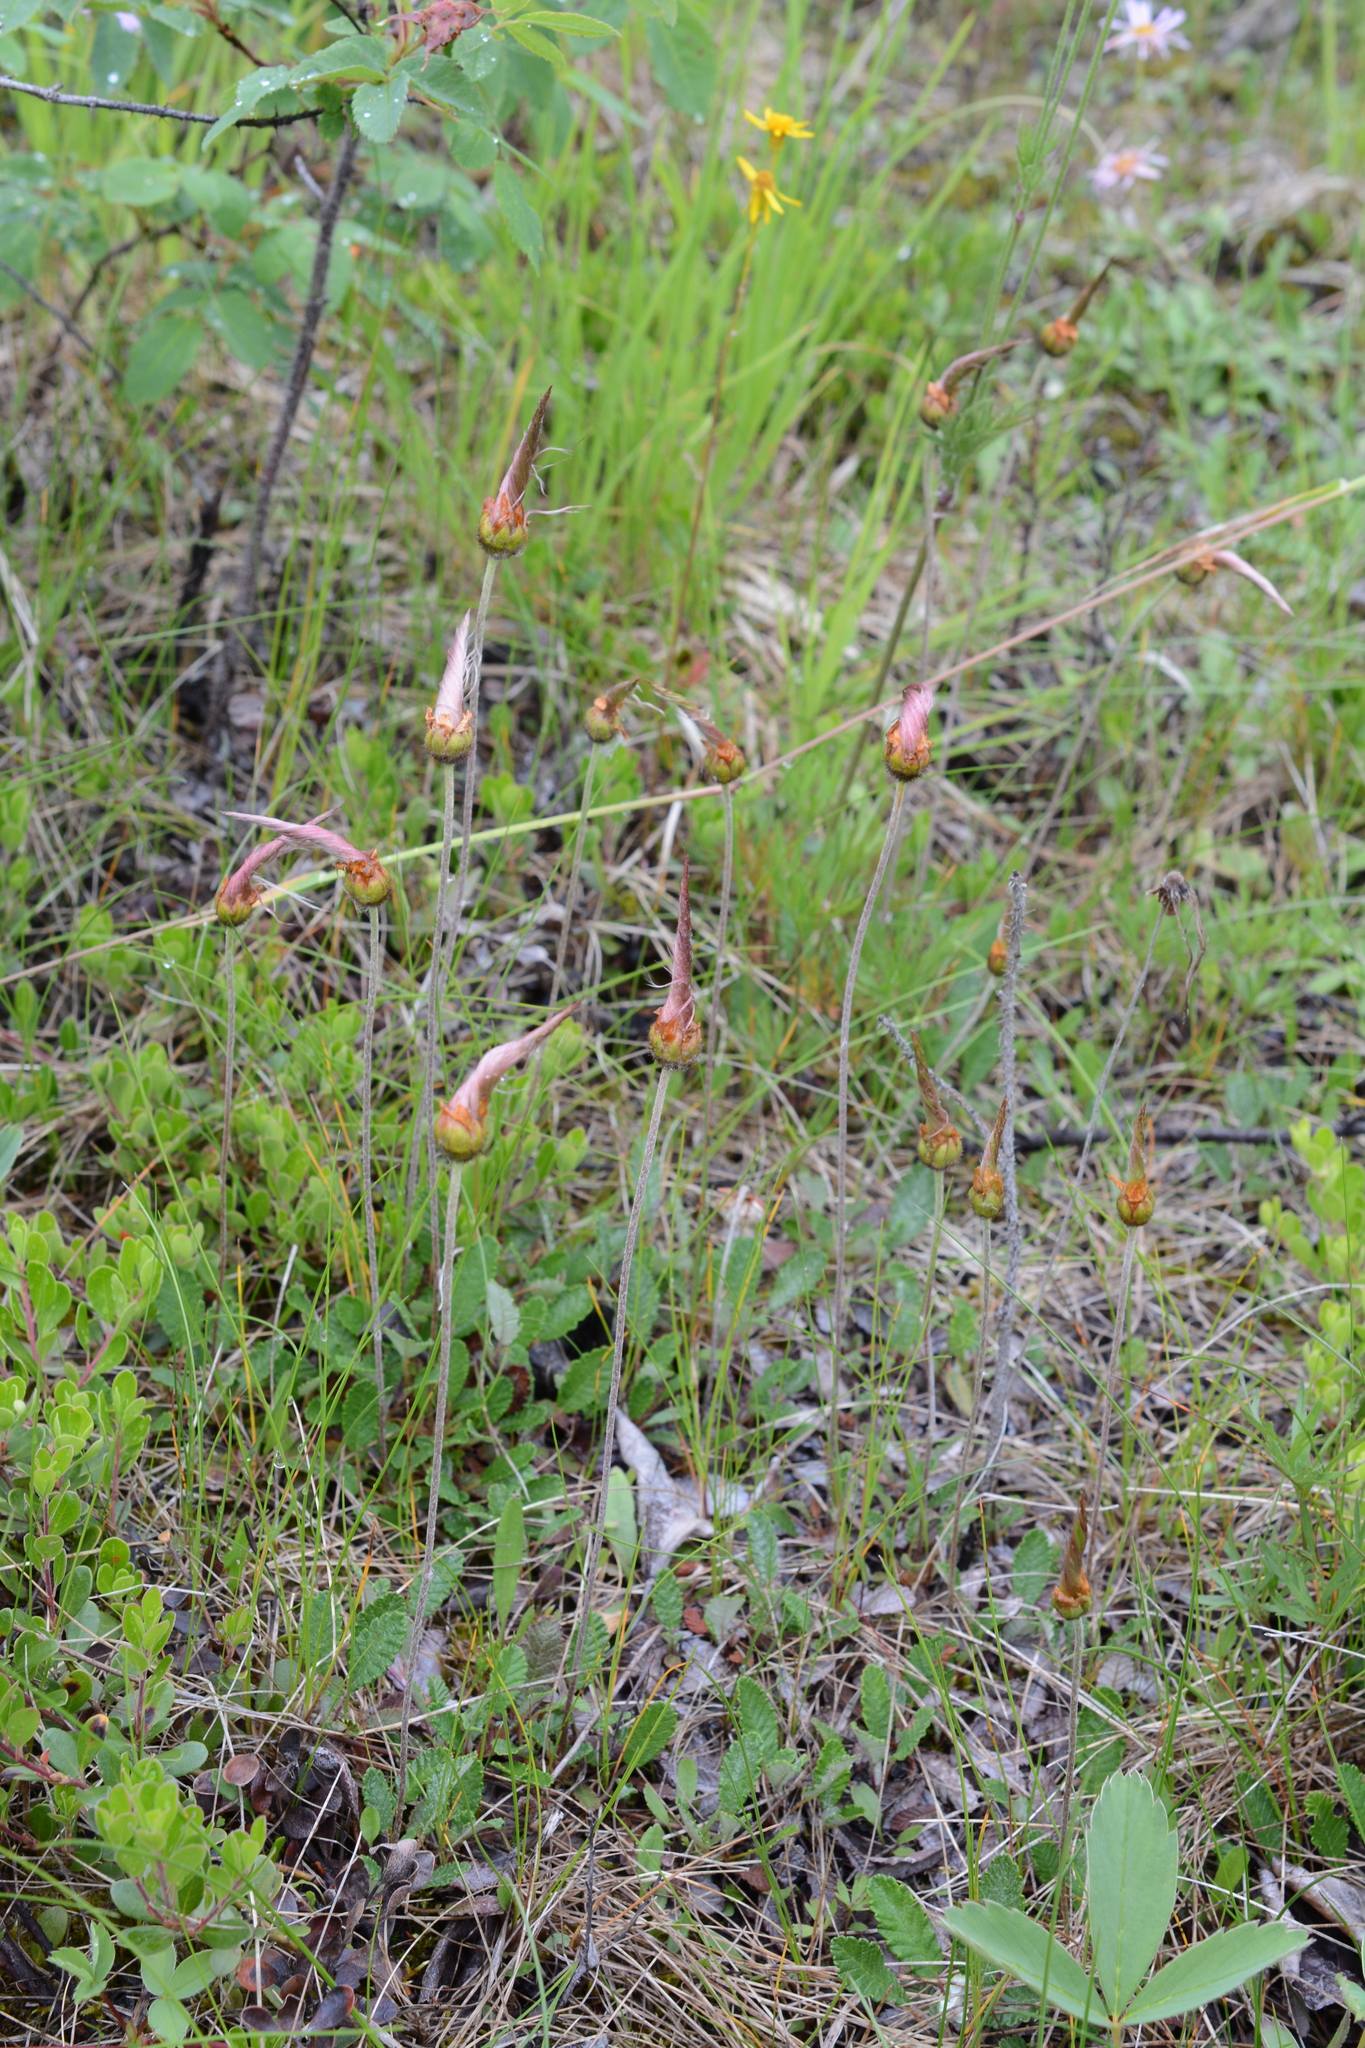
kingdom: Plantae
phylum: Tracheophyta
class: Magnoliopsida
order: Rosales
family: Rosaceae
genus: Dryas
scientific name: Dryas drummondii
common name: Drummond's dryad
